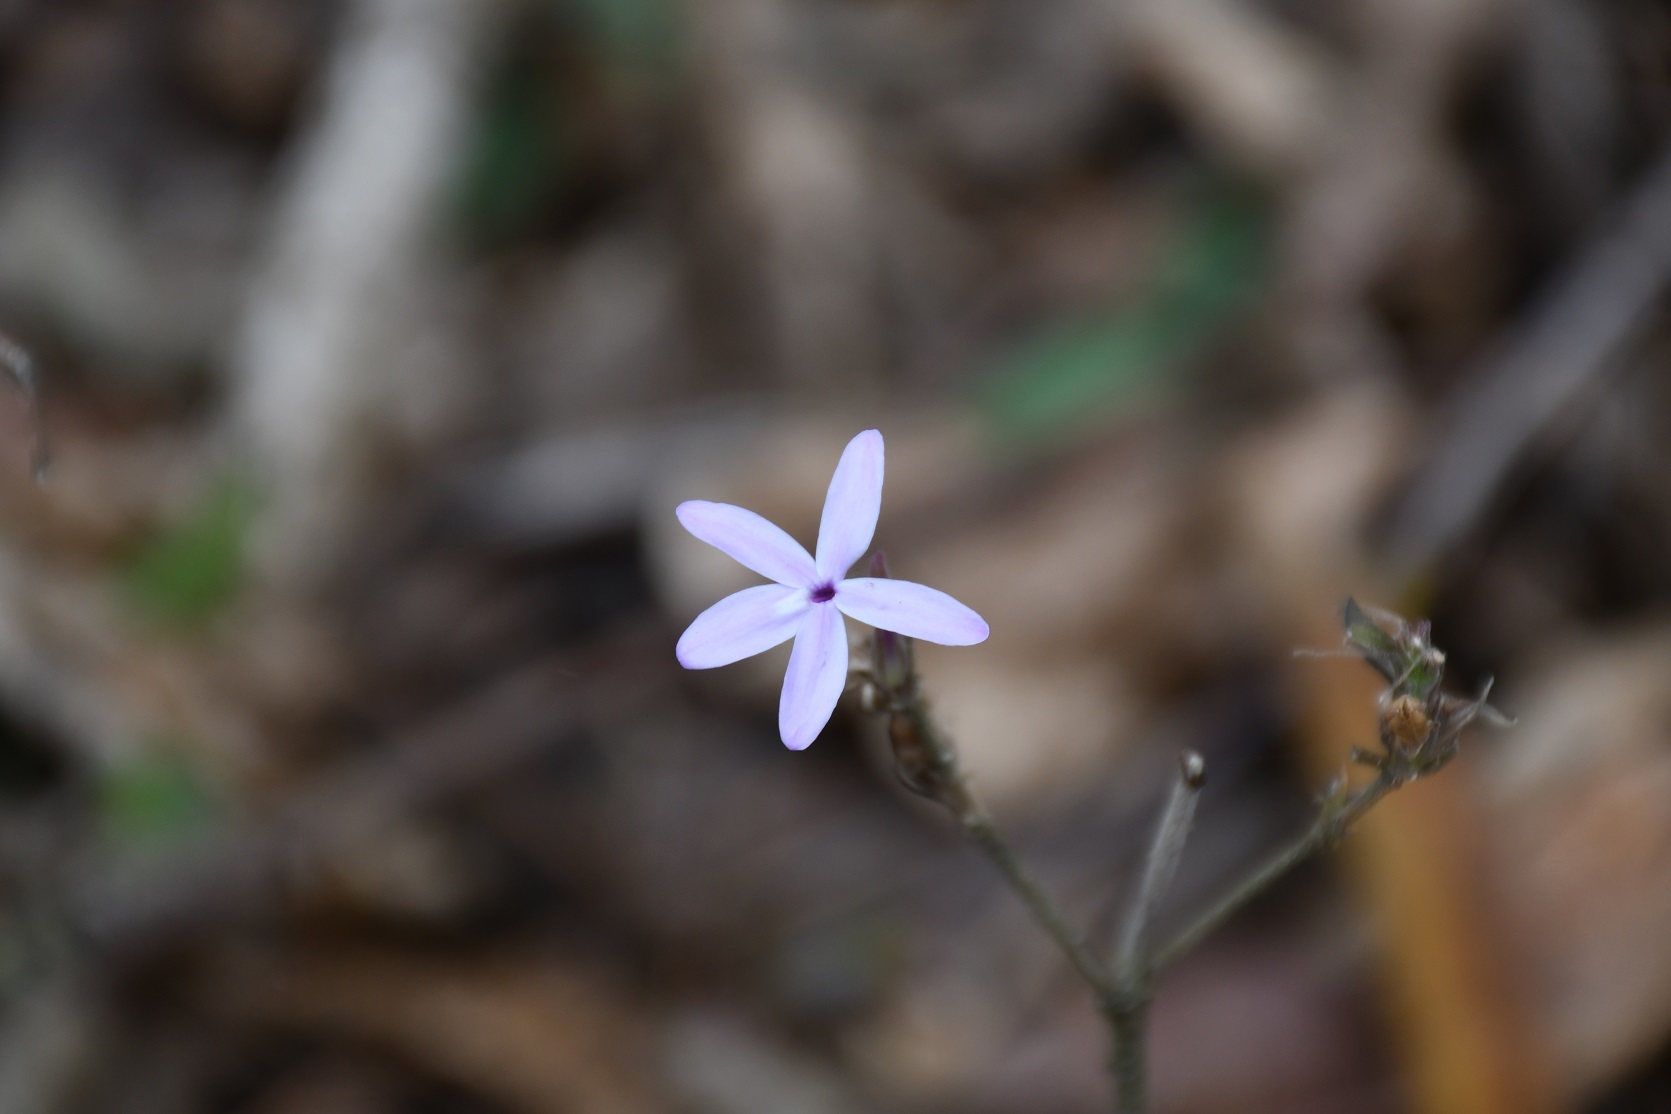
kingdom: Plantae
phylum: Tracheophyta
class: Magnoliopsida
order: Lamiales
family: Acanthaceae
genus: Pseuderanthemum
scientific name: Pseuderanthemum praecox
